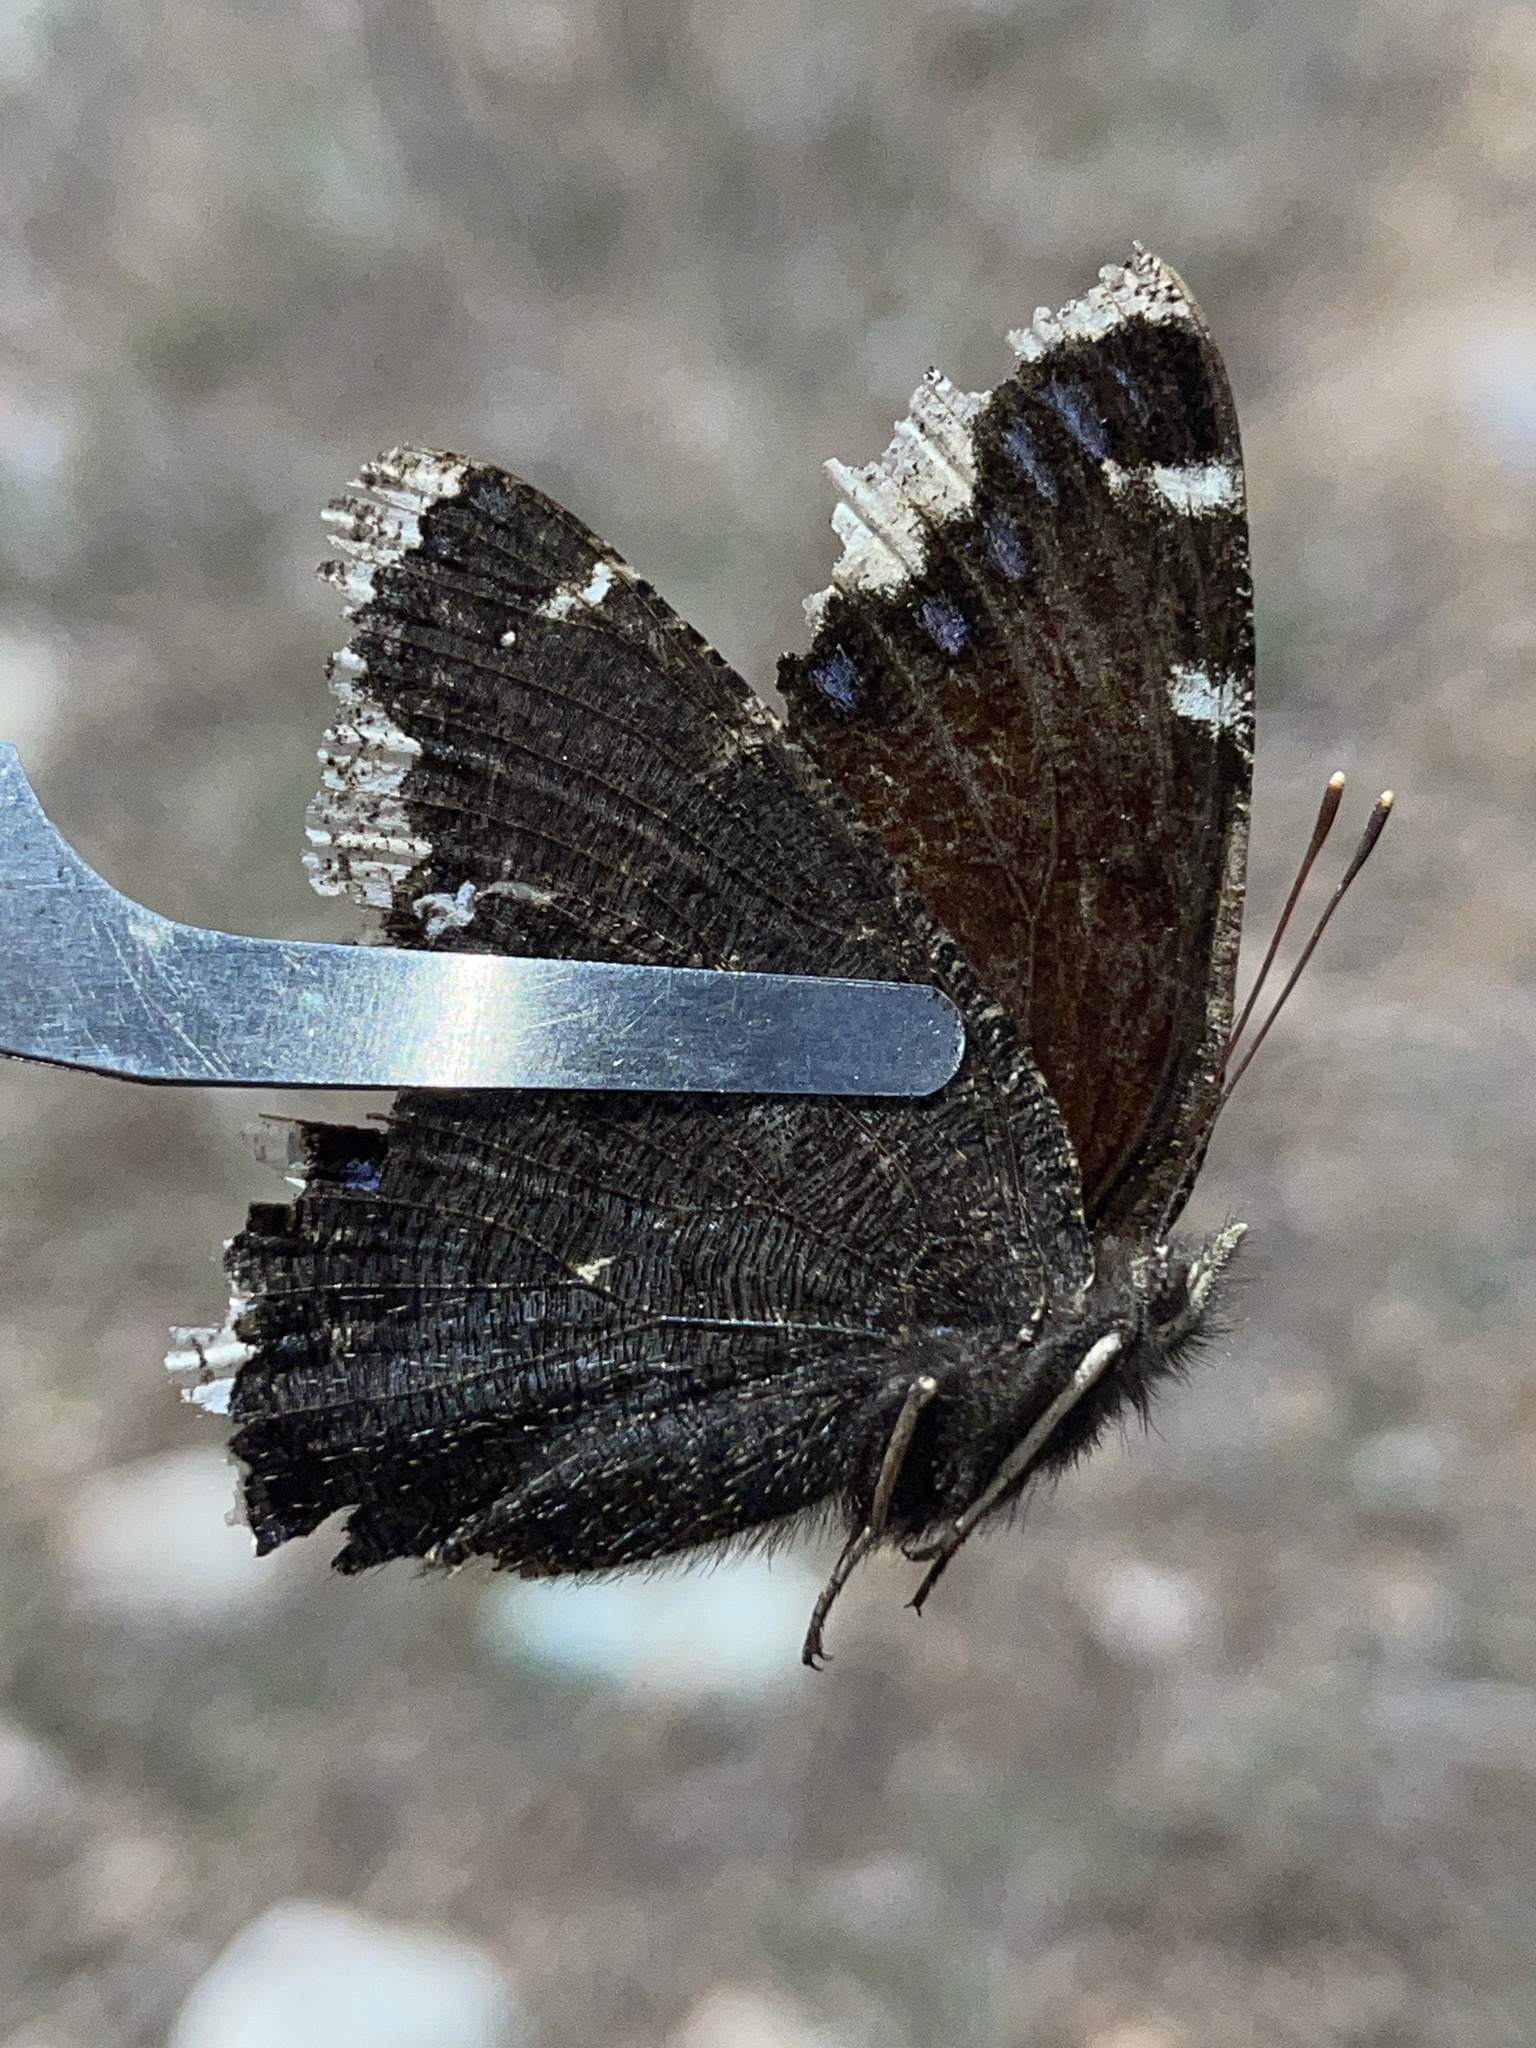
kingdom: Animalia
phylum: Arthropoda
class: Insecta
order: Lepidoptera
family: Nymphalidae
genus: Nymphalis
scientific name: Nymphalis antiopa
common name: Camberwell beauty
